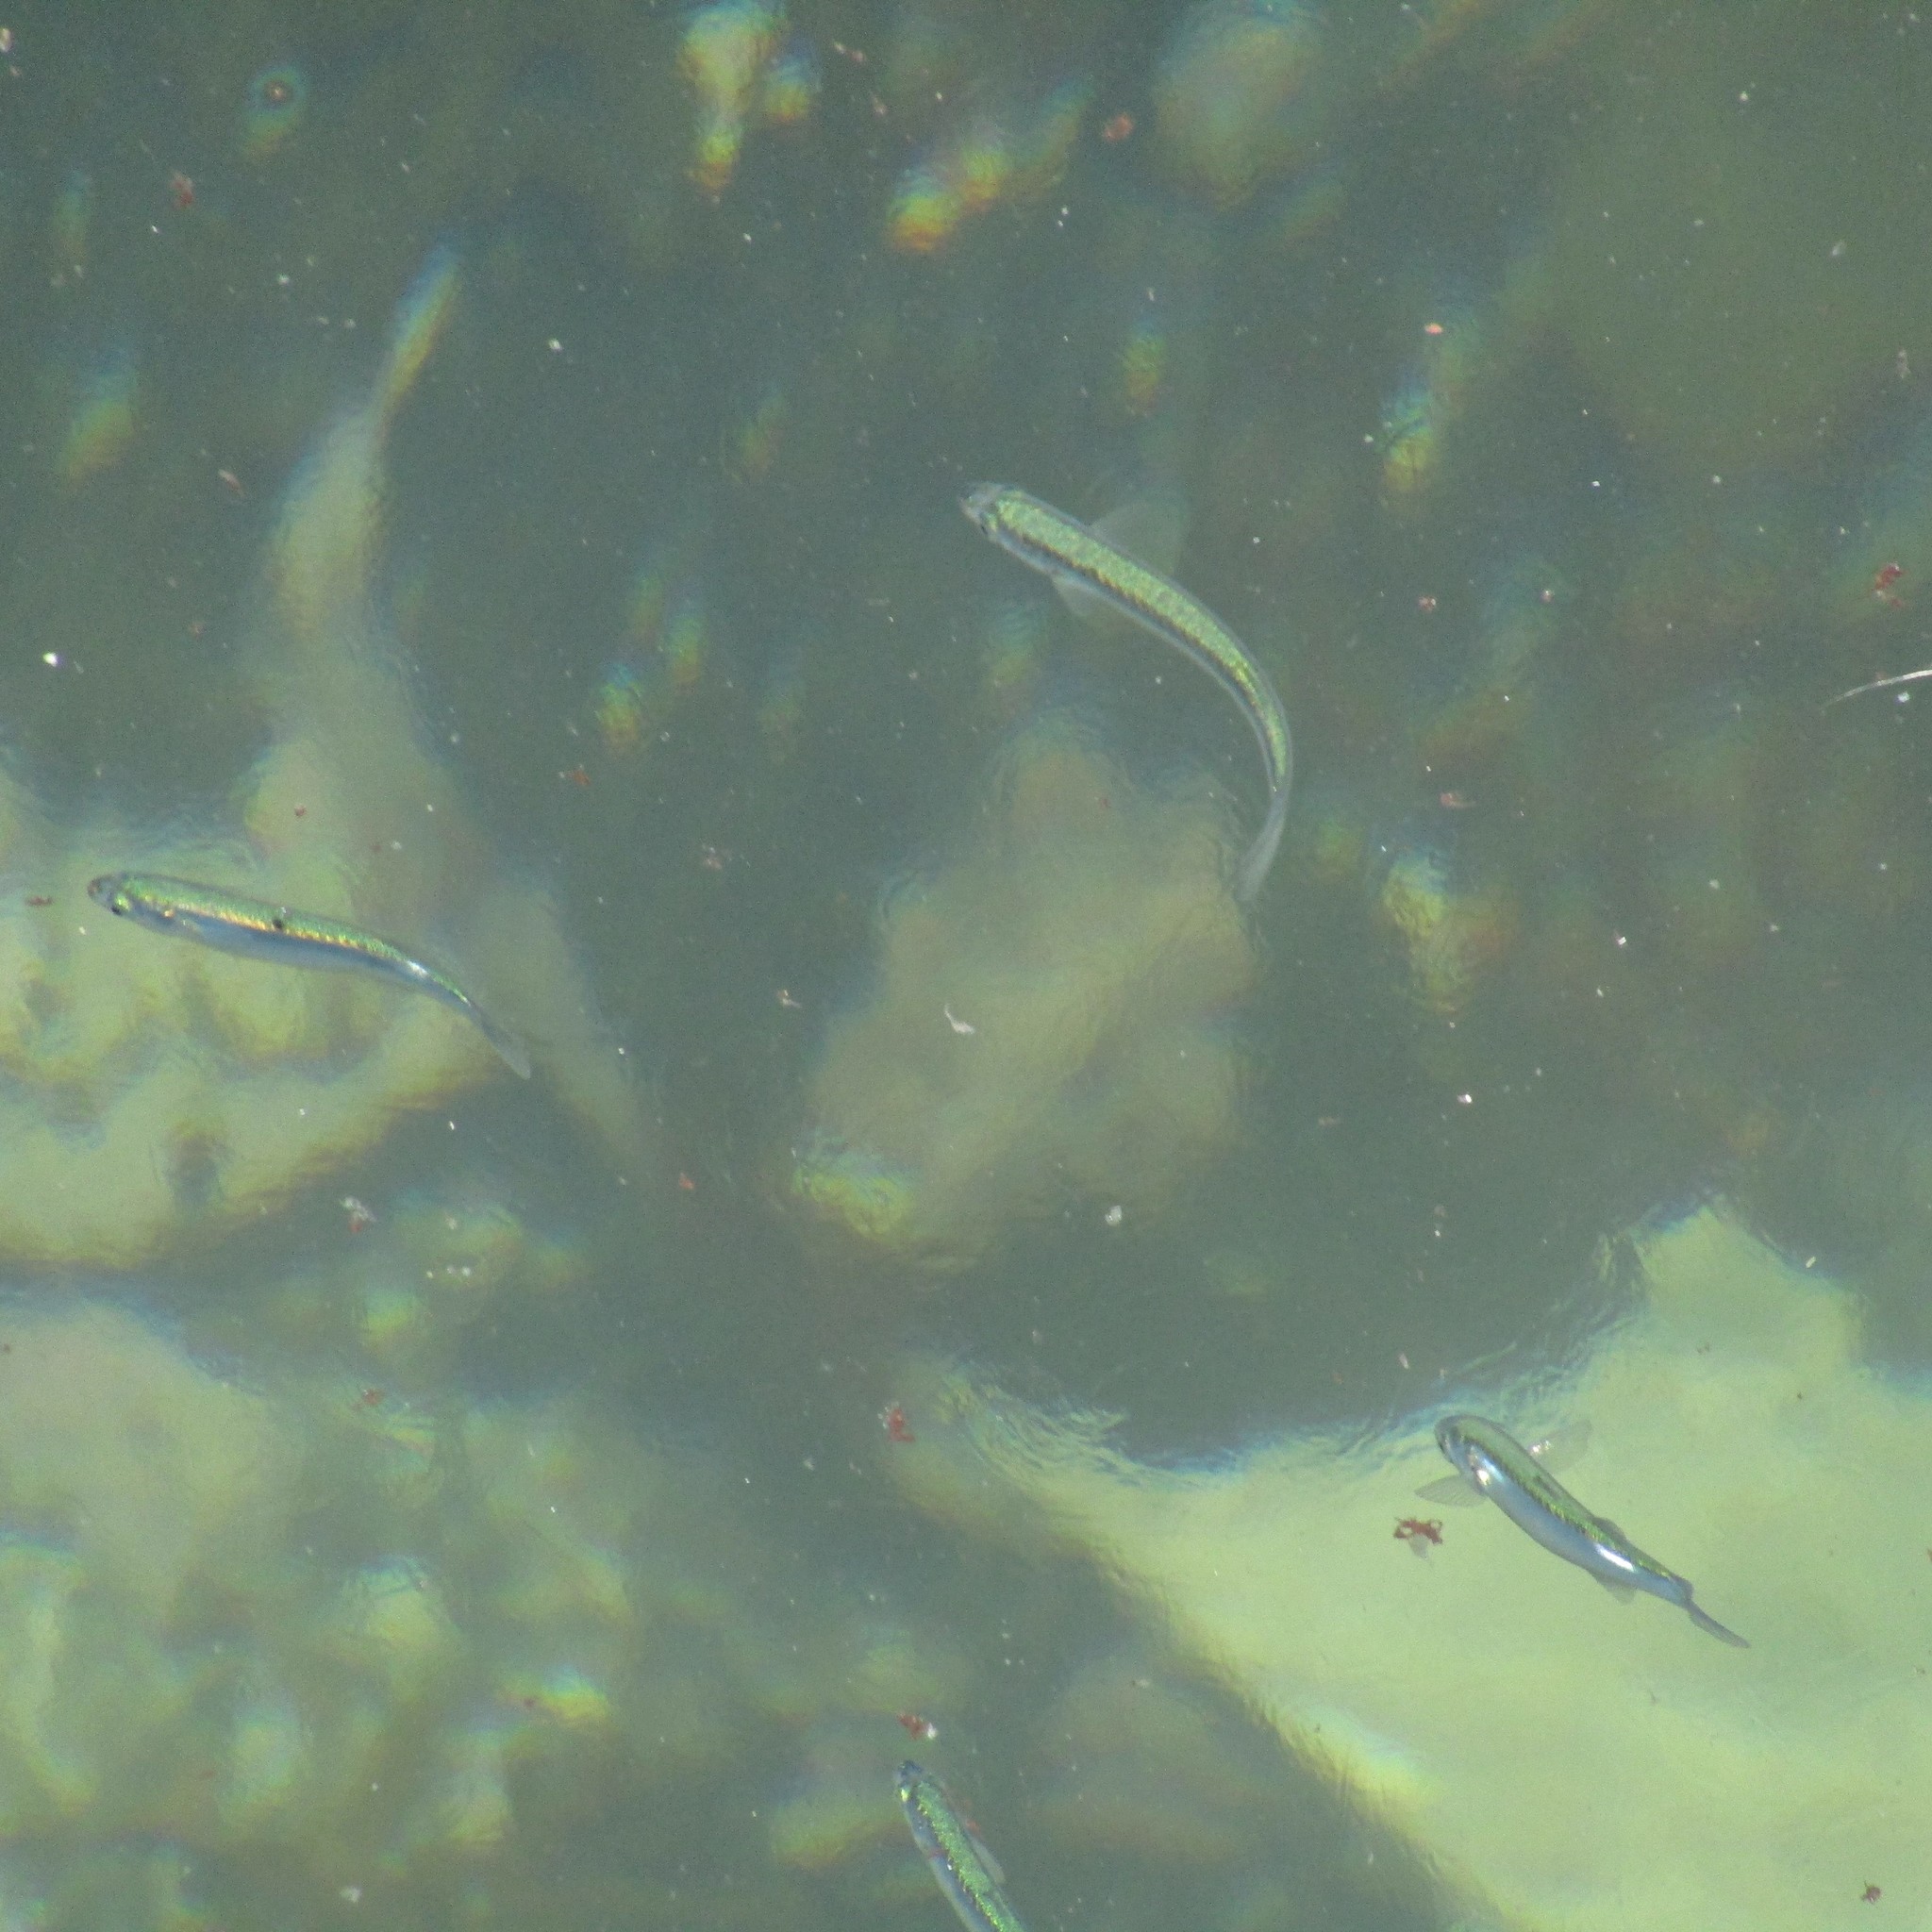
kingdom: Animalia
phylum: Chordata
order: Mugiliformes
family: Mugilidae
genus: Aldrichetta
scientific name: Aldrichetta forsteri
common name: Yellow-eye mullet
